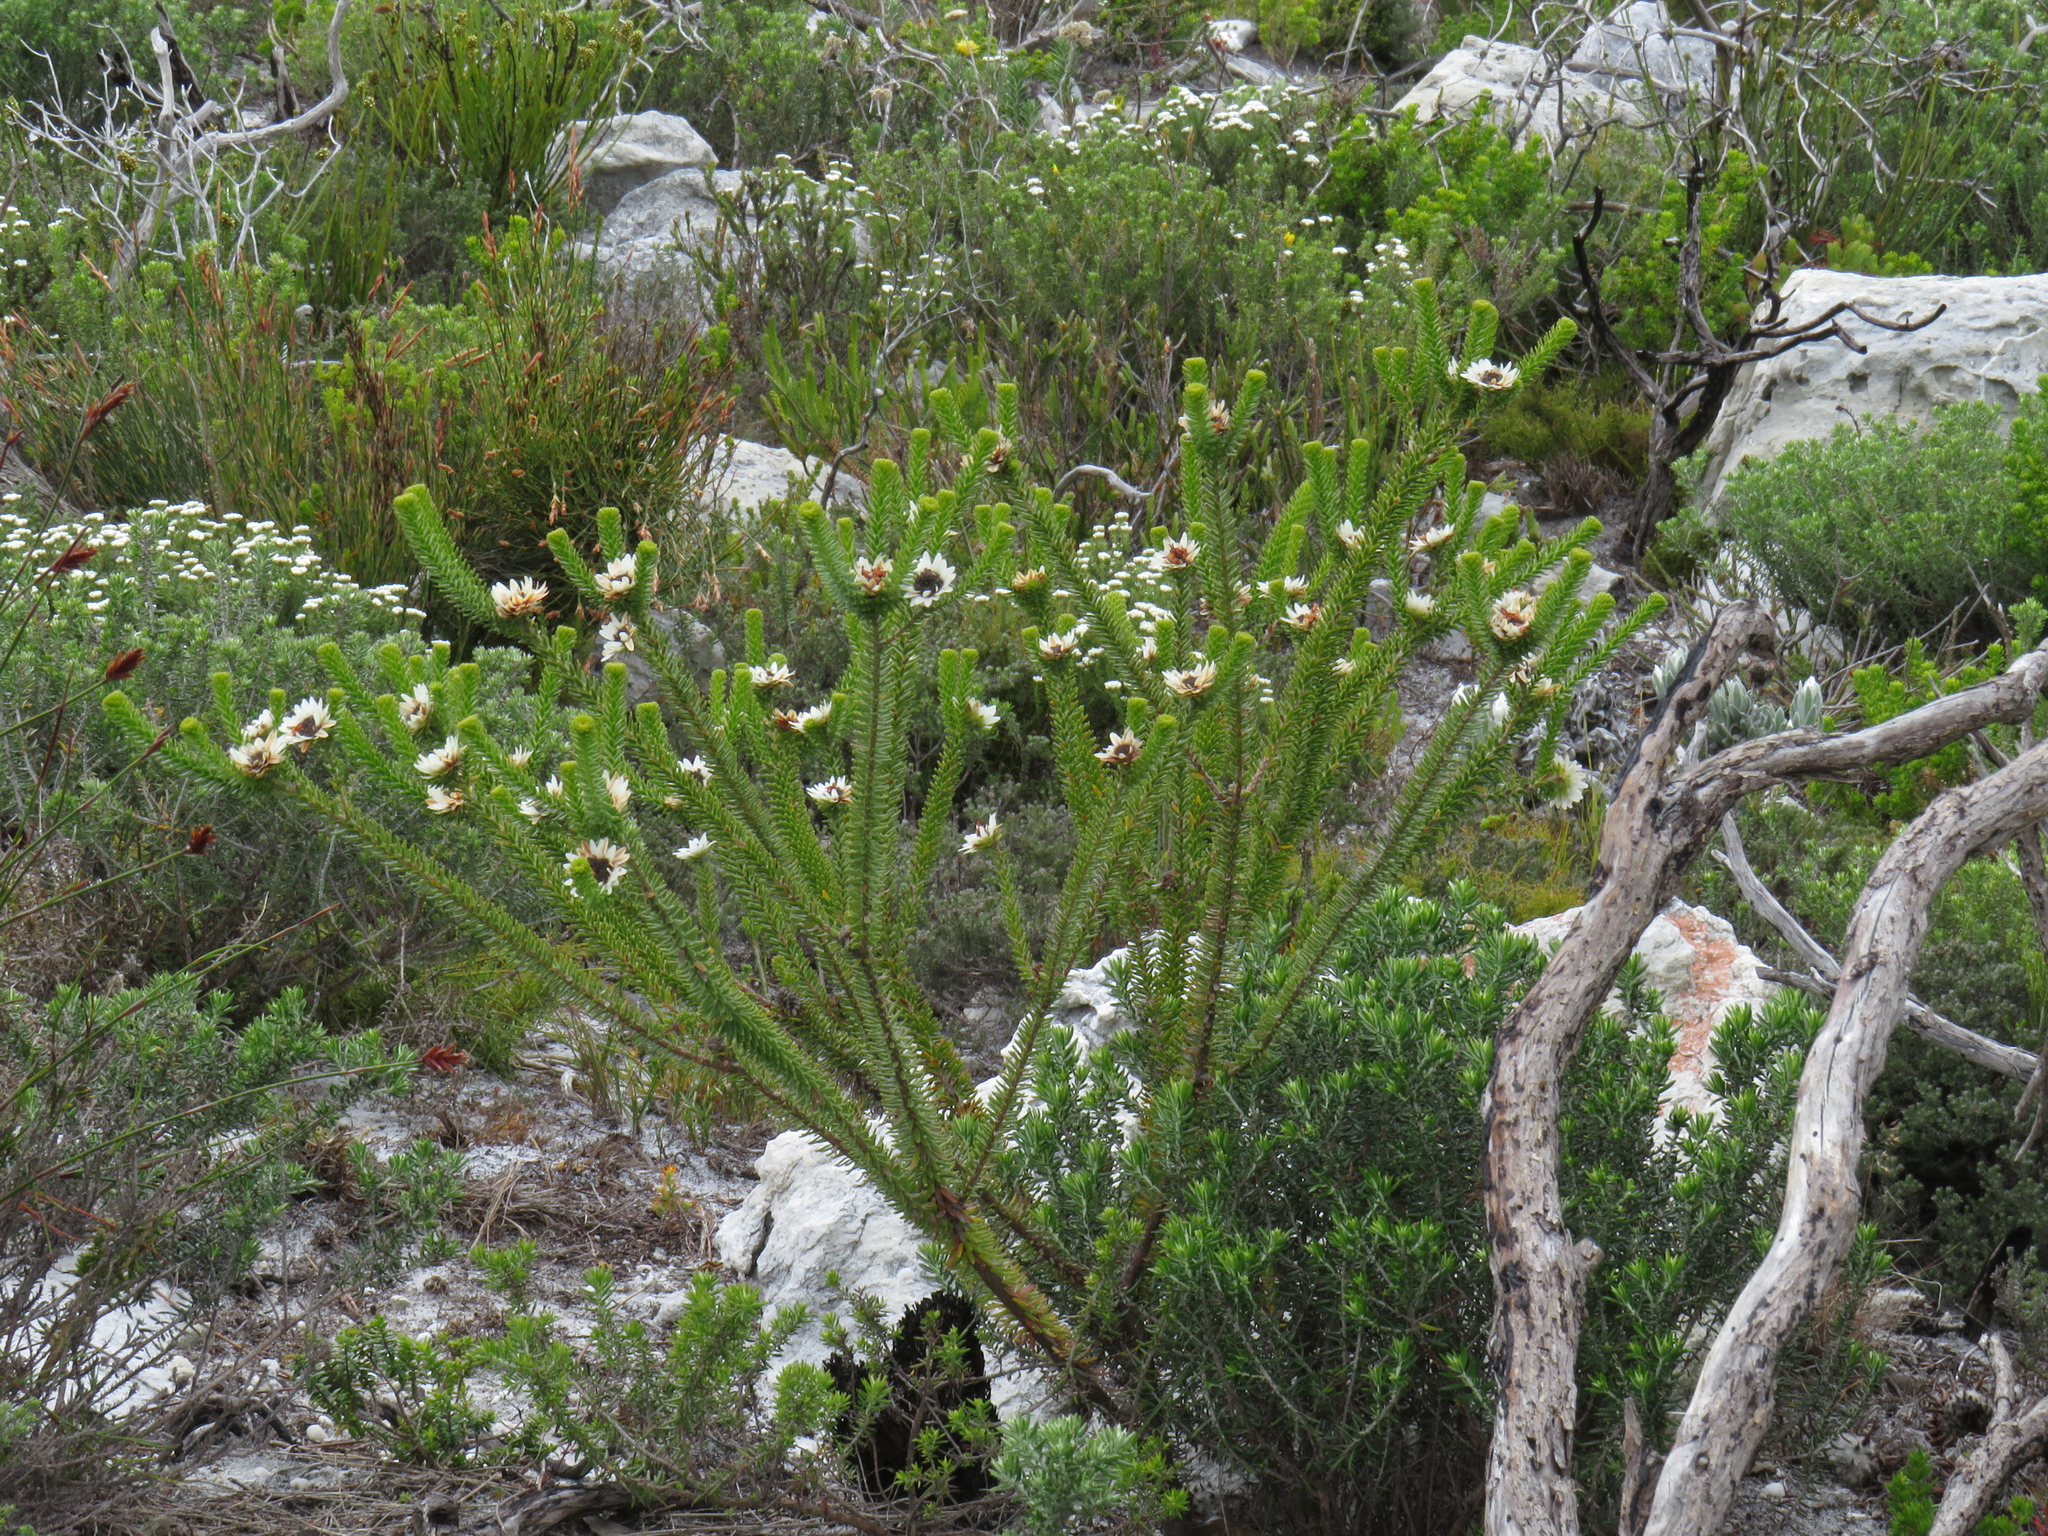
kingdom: Plantae
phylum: Tracheophyta
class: Magnoliopsida
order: Bruniales
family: Bruniaceae
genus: Staavia
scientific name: Staavia dodii
